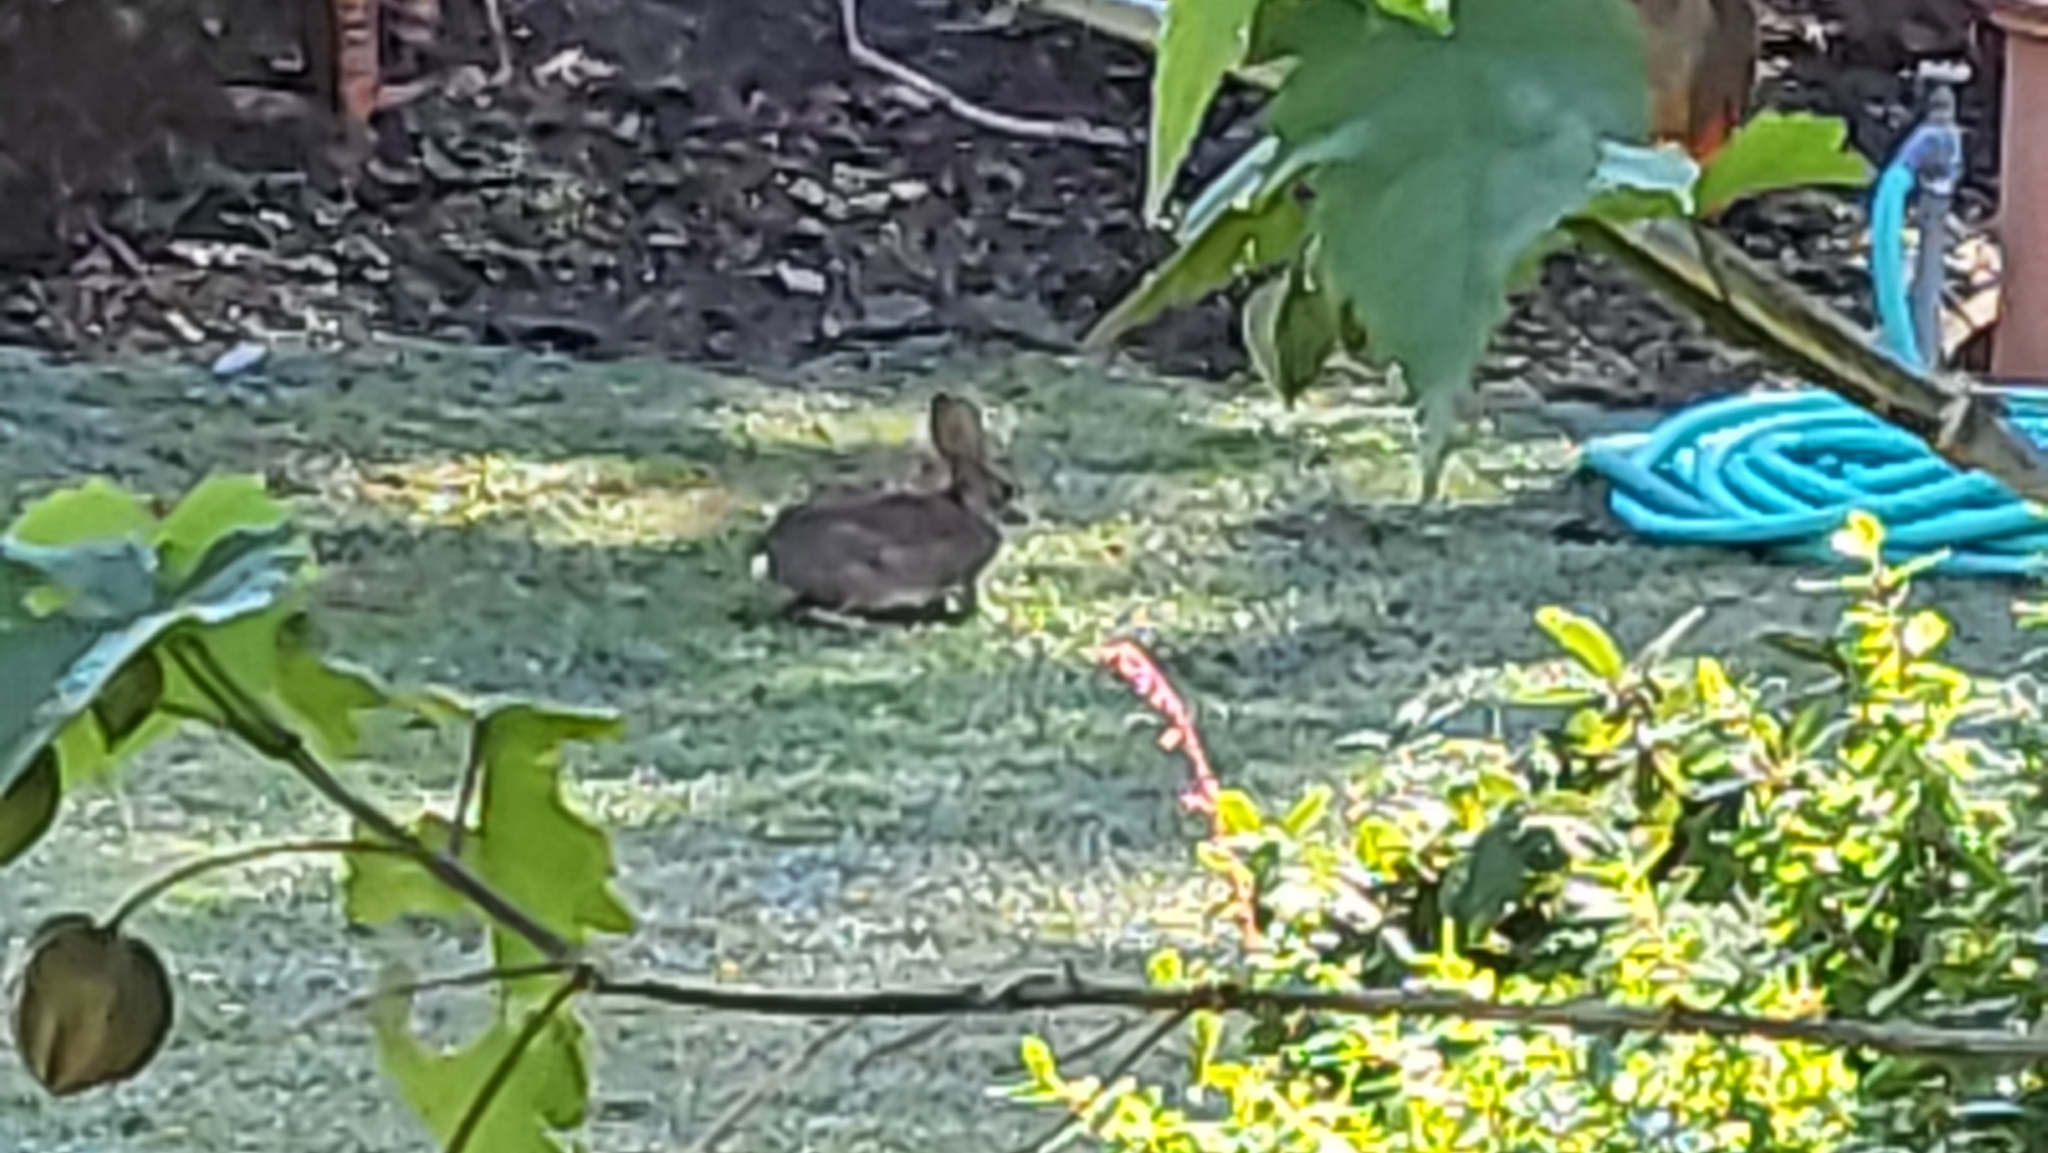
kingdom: Animalia
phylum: Chordata
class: Mammalia
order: Lagomorpha
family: Leporidae
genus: Sylvilagus
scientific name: Sylvilagus bachmani
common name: Brush rabbit
